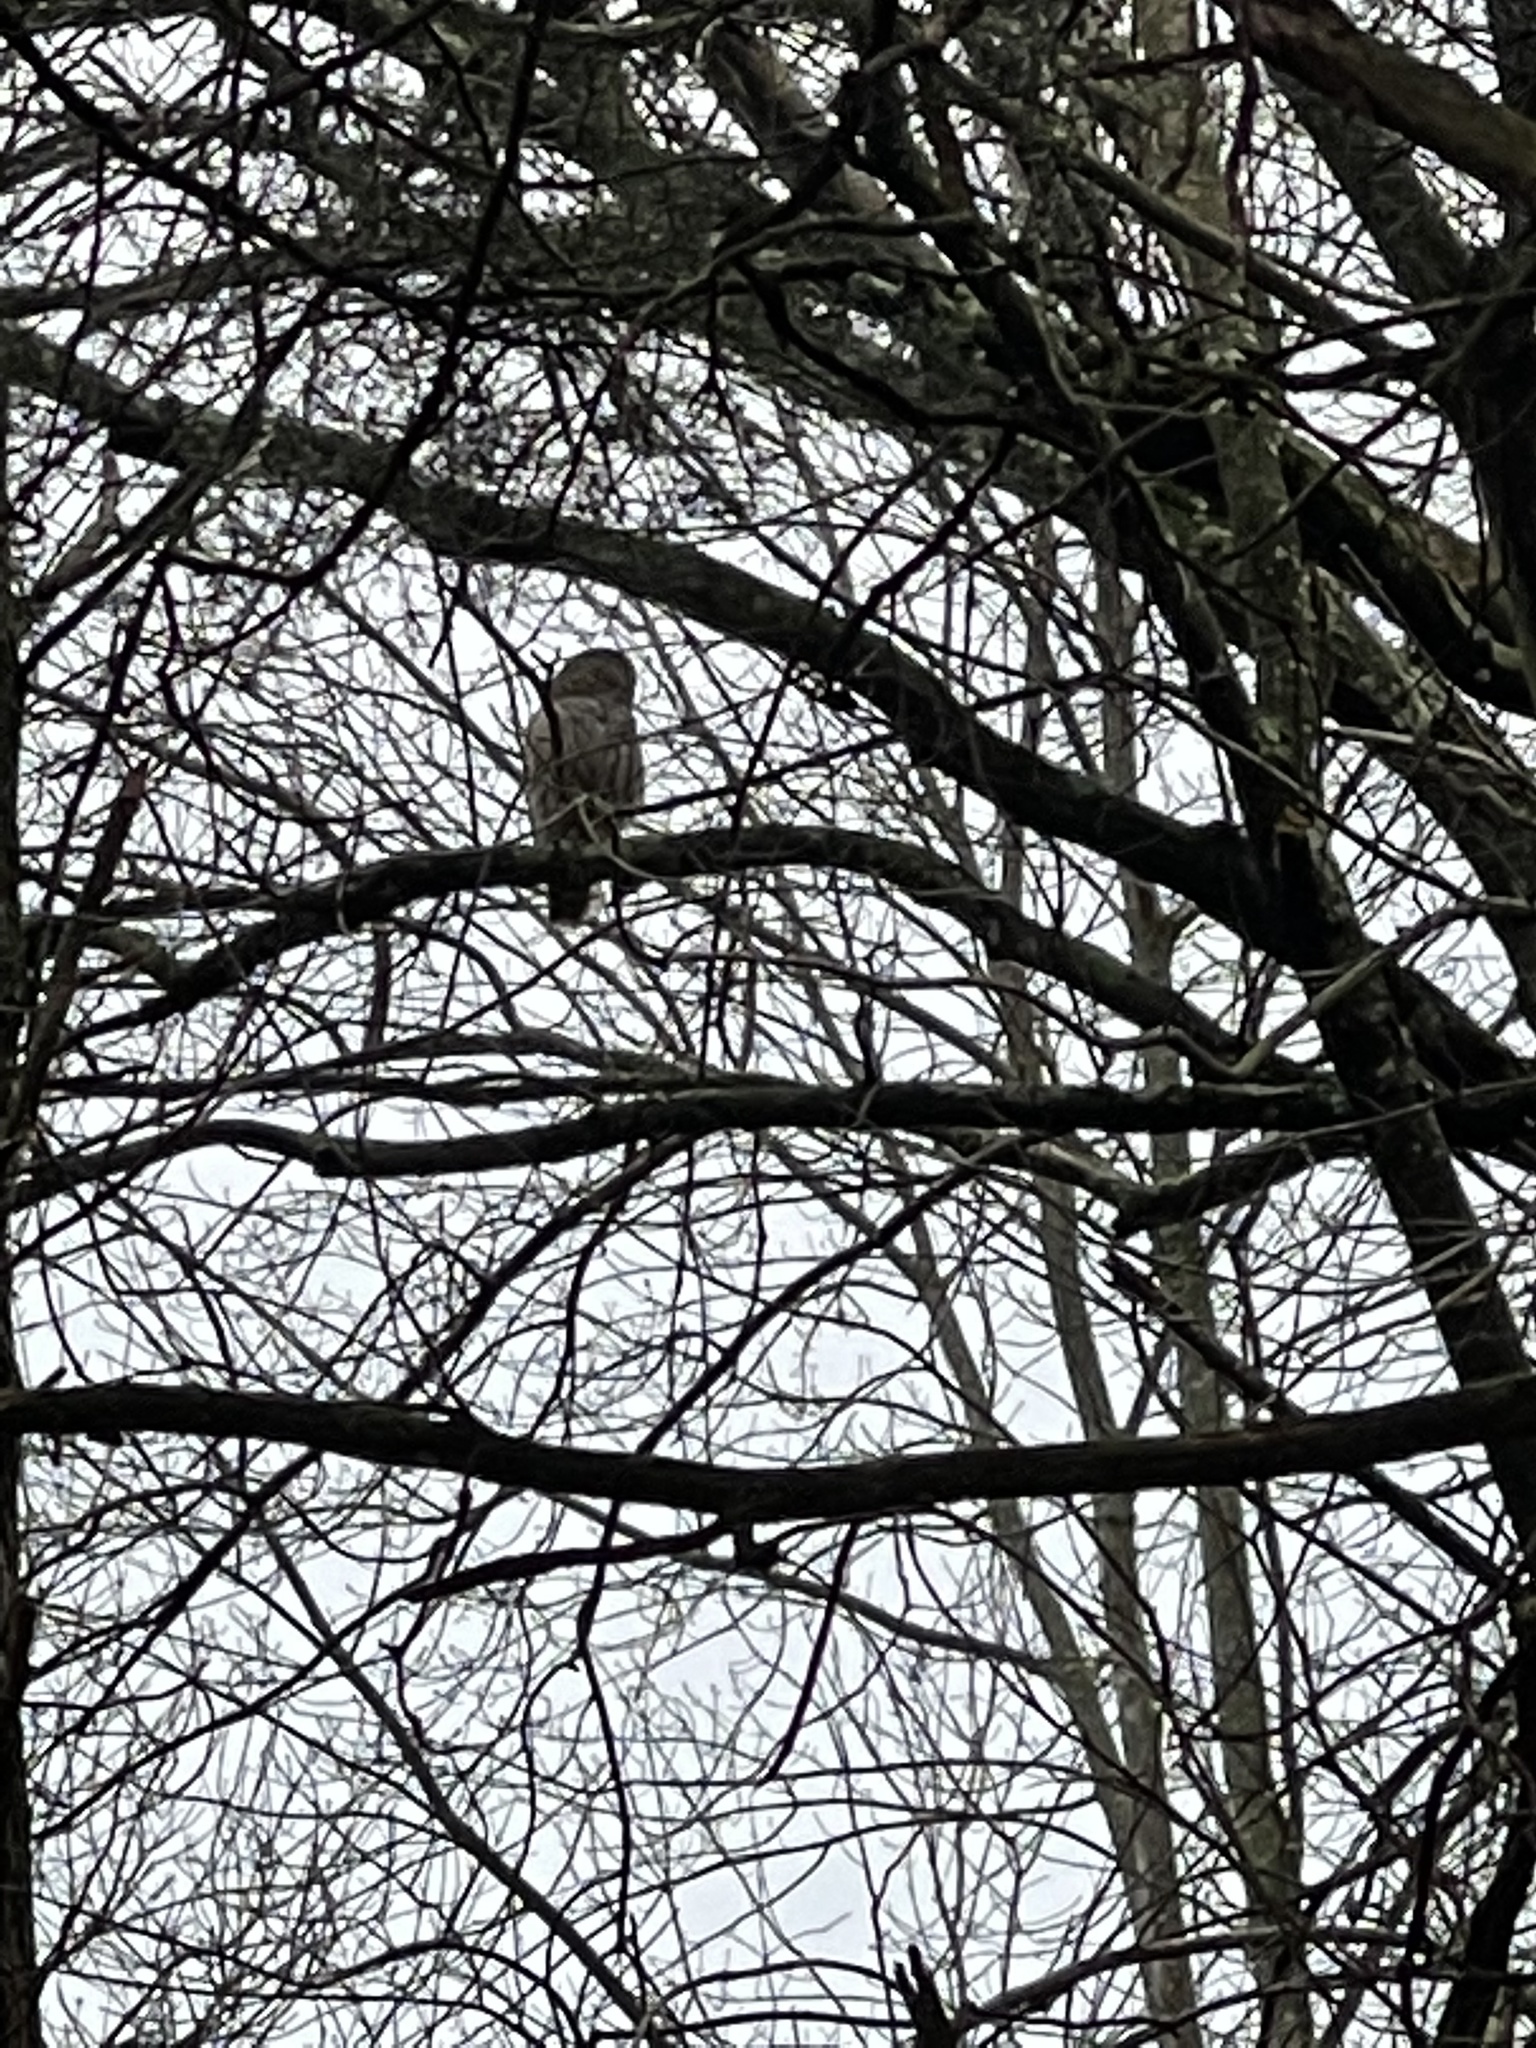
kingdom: Animalia
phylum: Chordata
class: Aves
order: Strigiformes
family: Strigidae
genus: Strix
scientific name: Strix varia
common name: Barred owl
